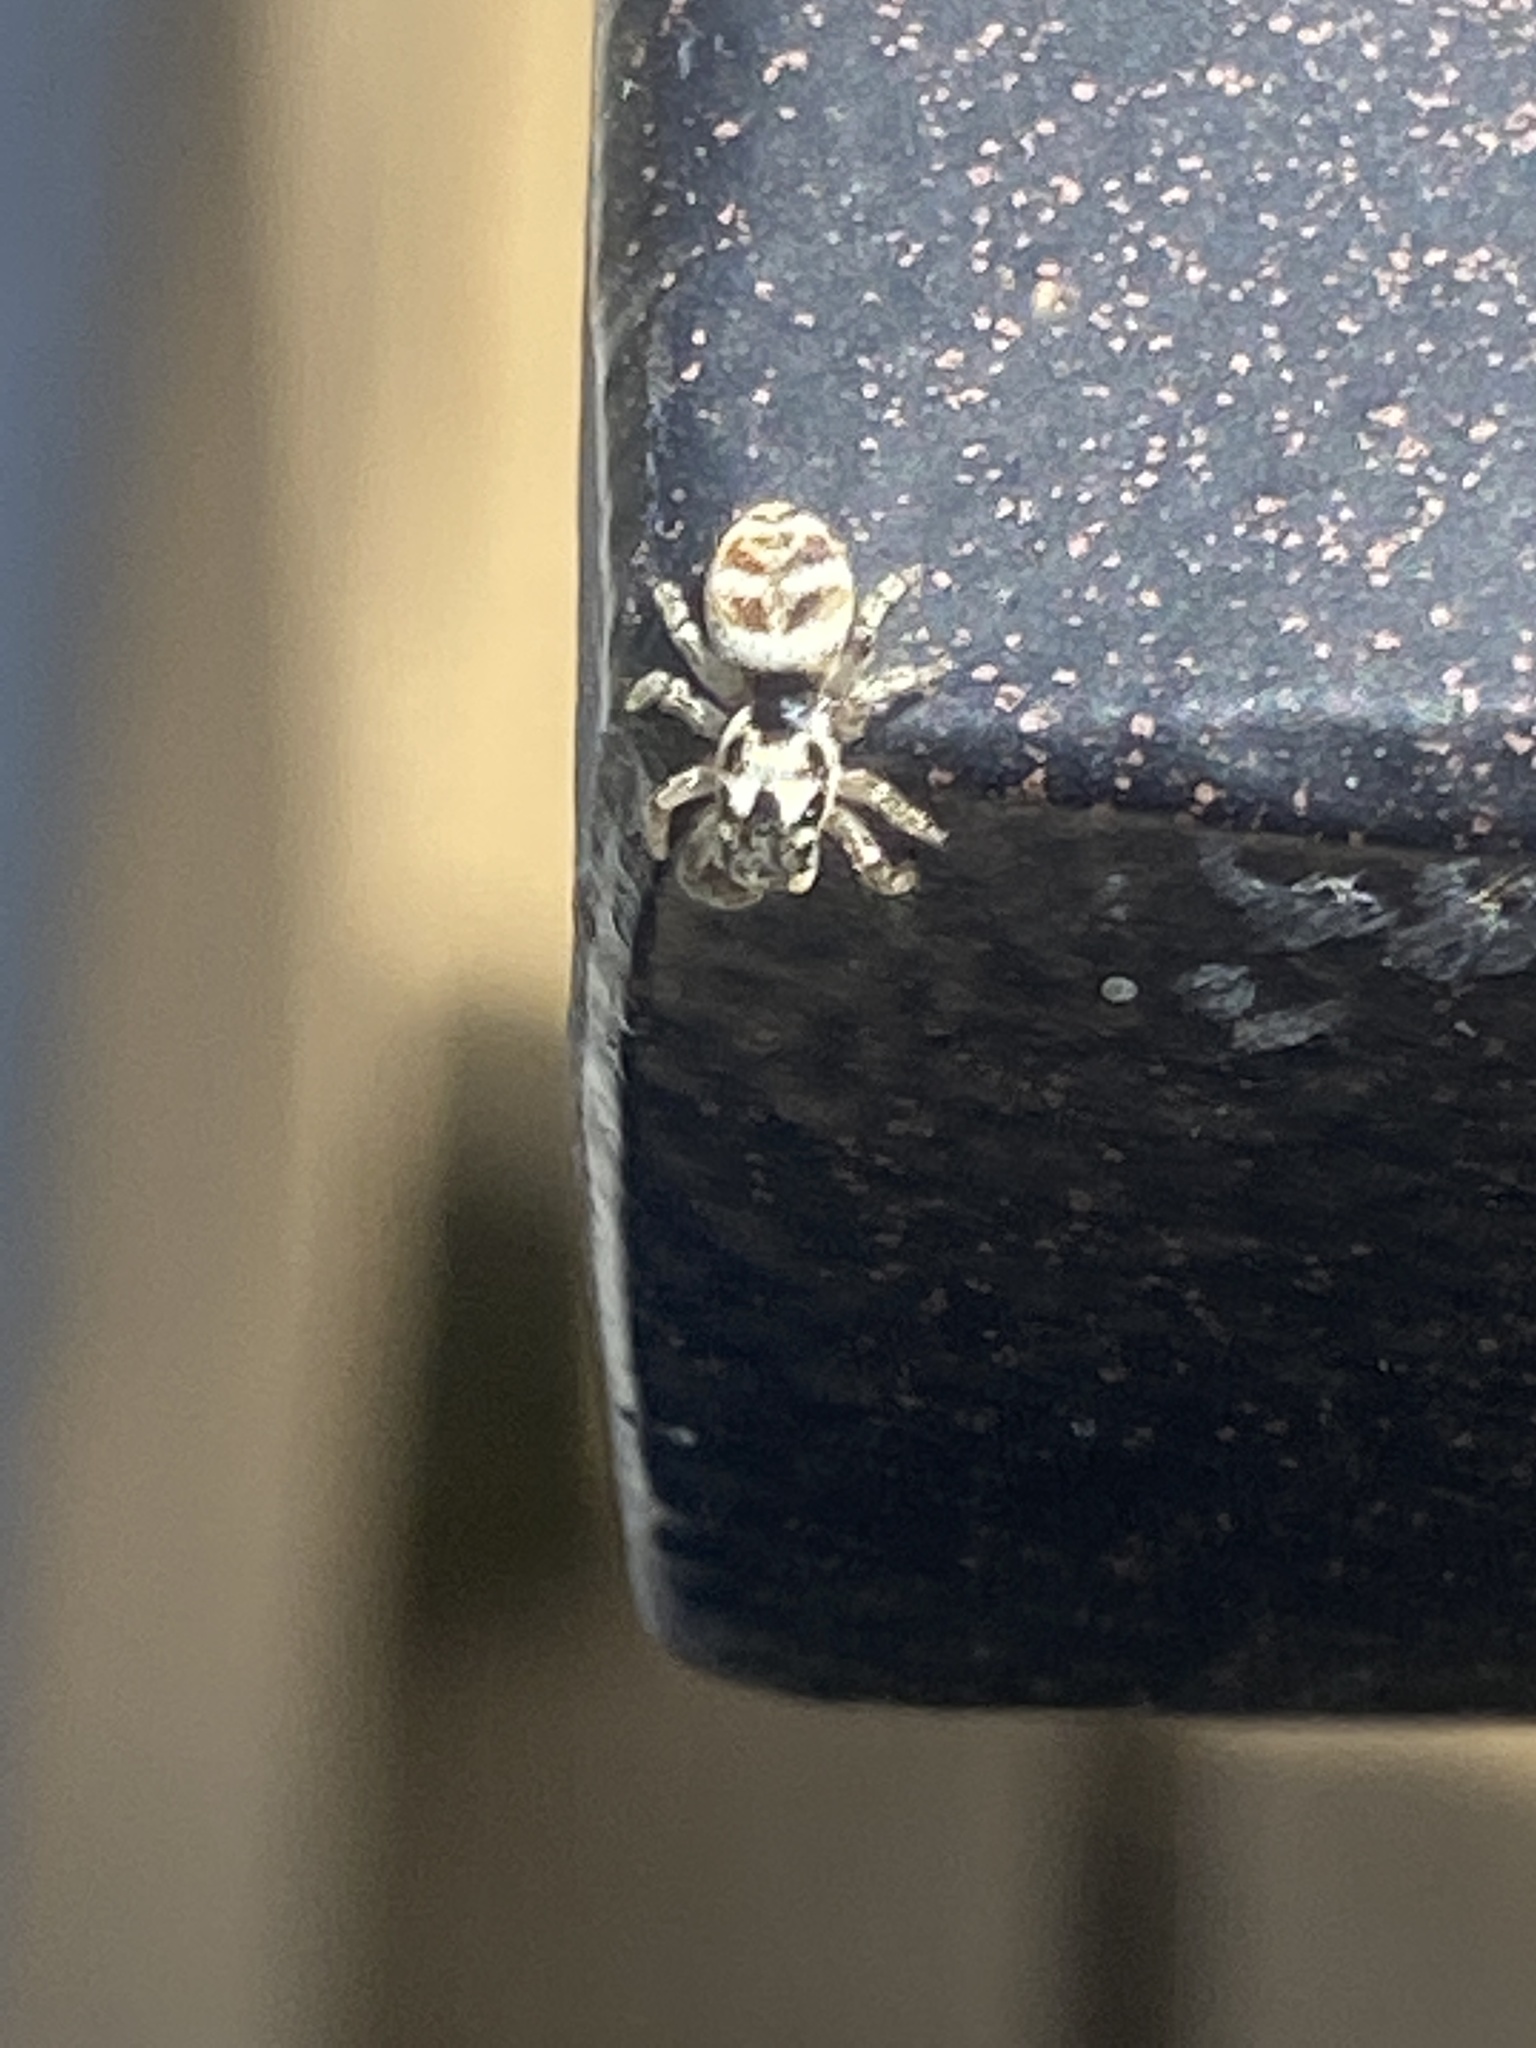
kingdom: Animalia
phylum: Arthropoda
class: Arachnida
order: Araneae
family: Salticidae
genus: Salticus
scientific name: Salticus scenicus
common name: Zebra jumper
